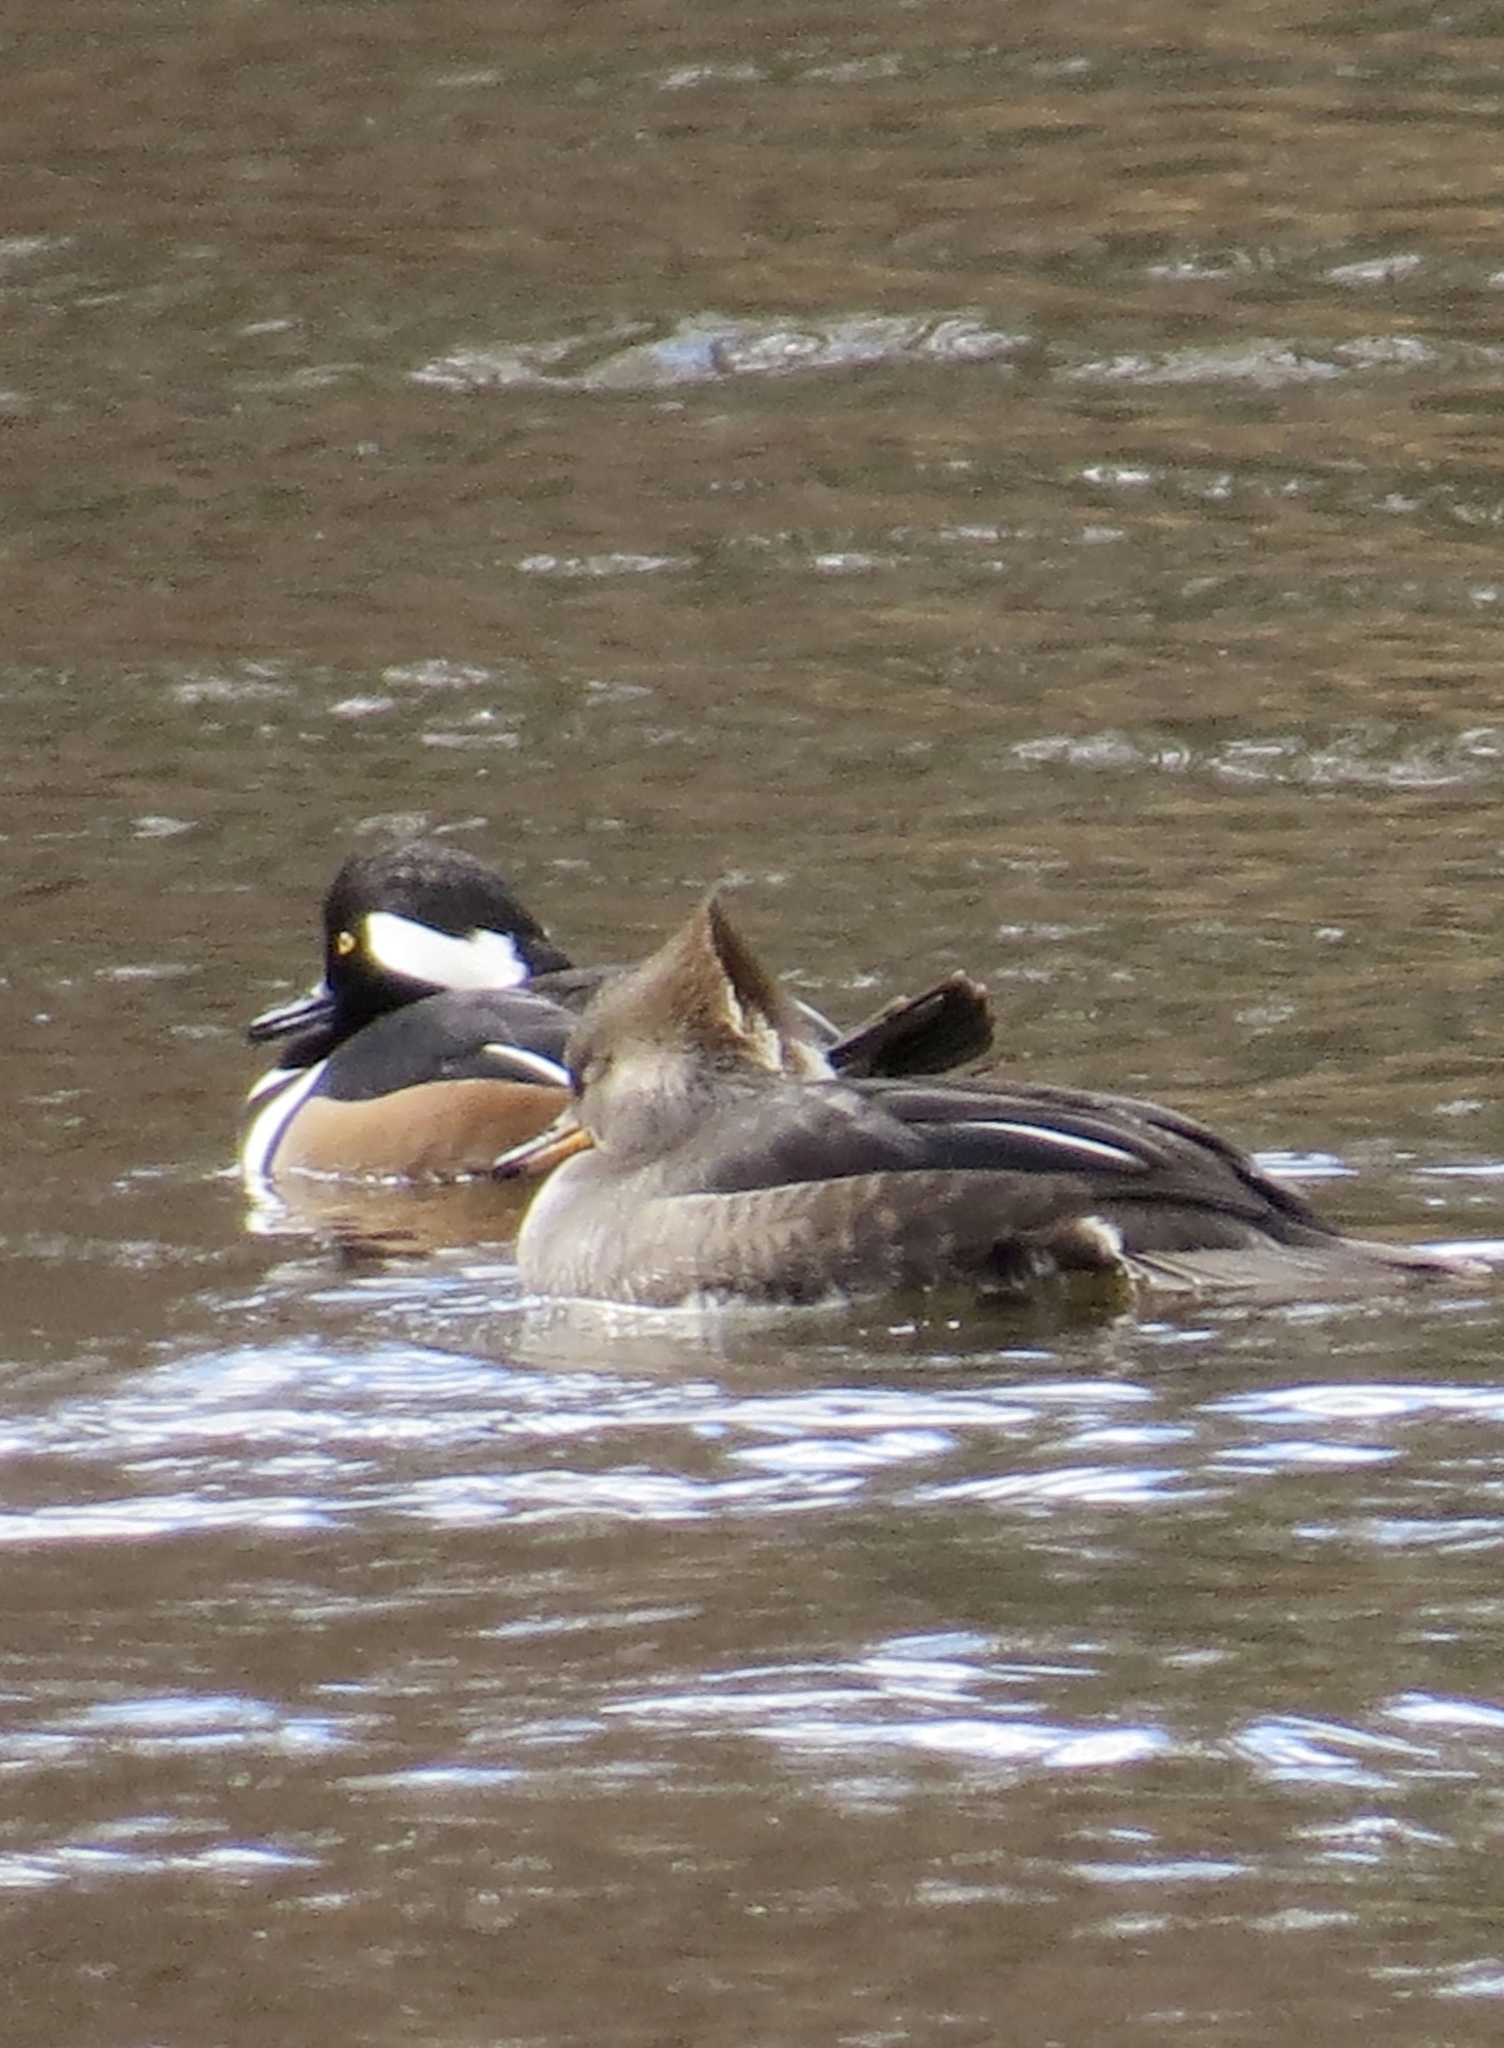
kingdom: Animalia
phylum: Chordata
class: Aves
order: Anseriformes
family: Anatidae
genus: Lophodytes
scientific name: Lophodytes cucullatus
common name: Hooded merganser
